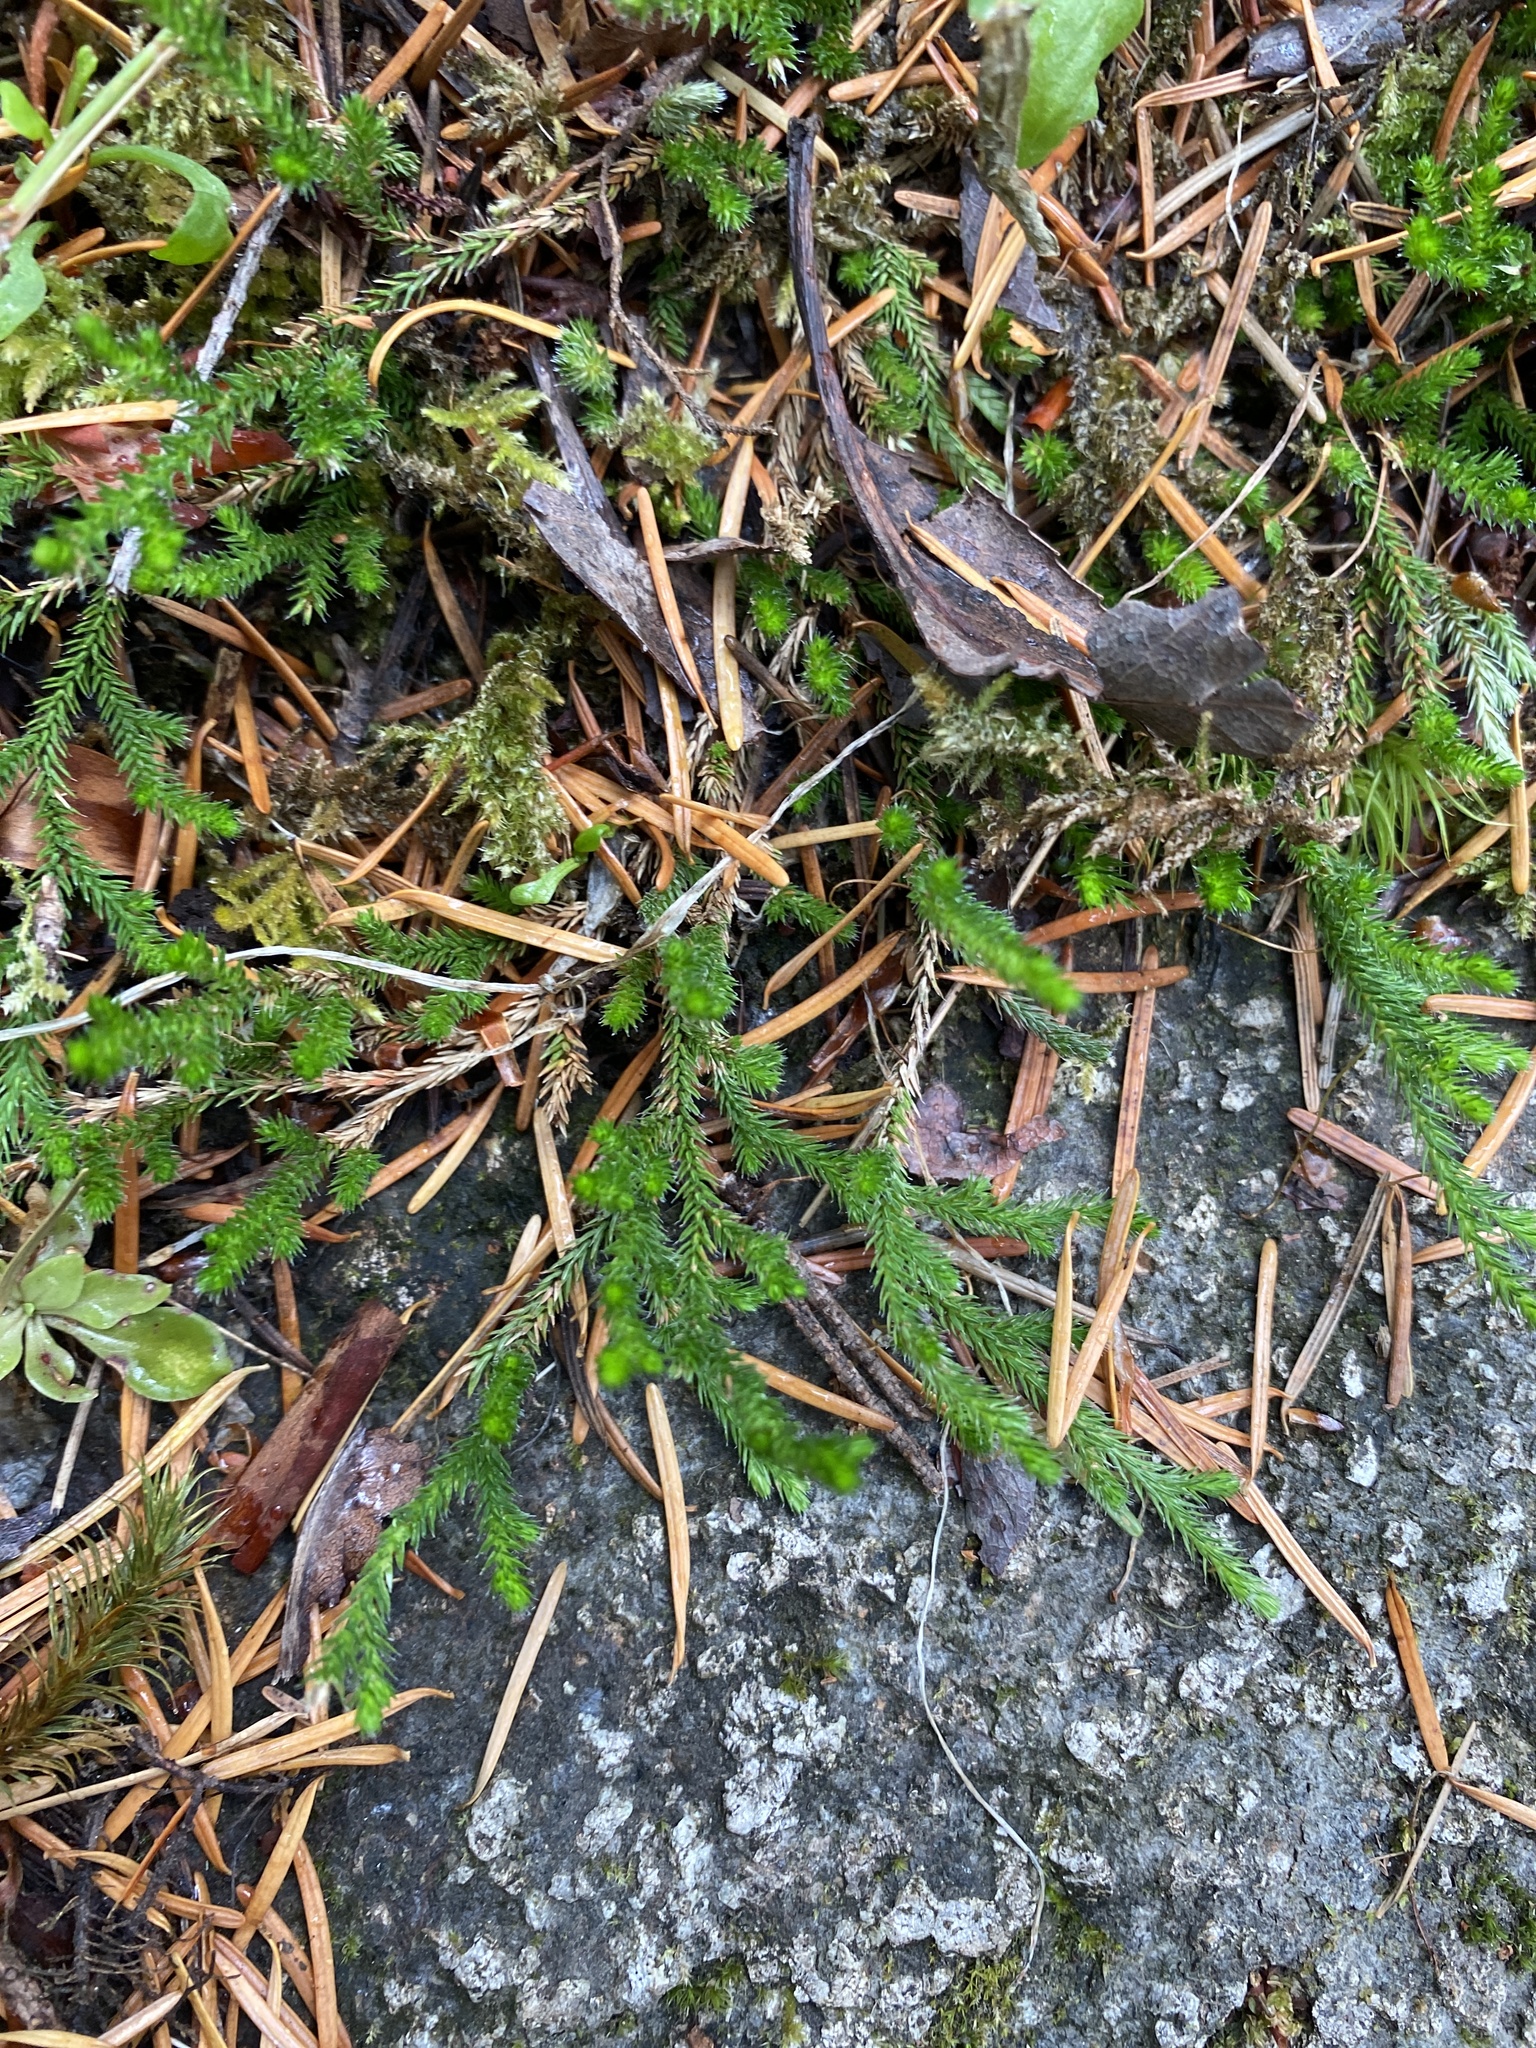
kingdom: Plantae
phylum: Tracheophyta
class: Lycopodiopsida
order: Selaginellales
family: Selaginellaceae
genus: Selaginella
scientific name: Selaginella wallacei
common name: Wallace's selaginella
